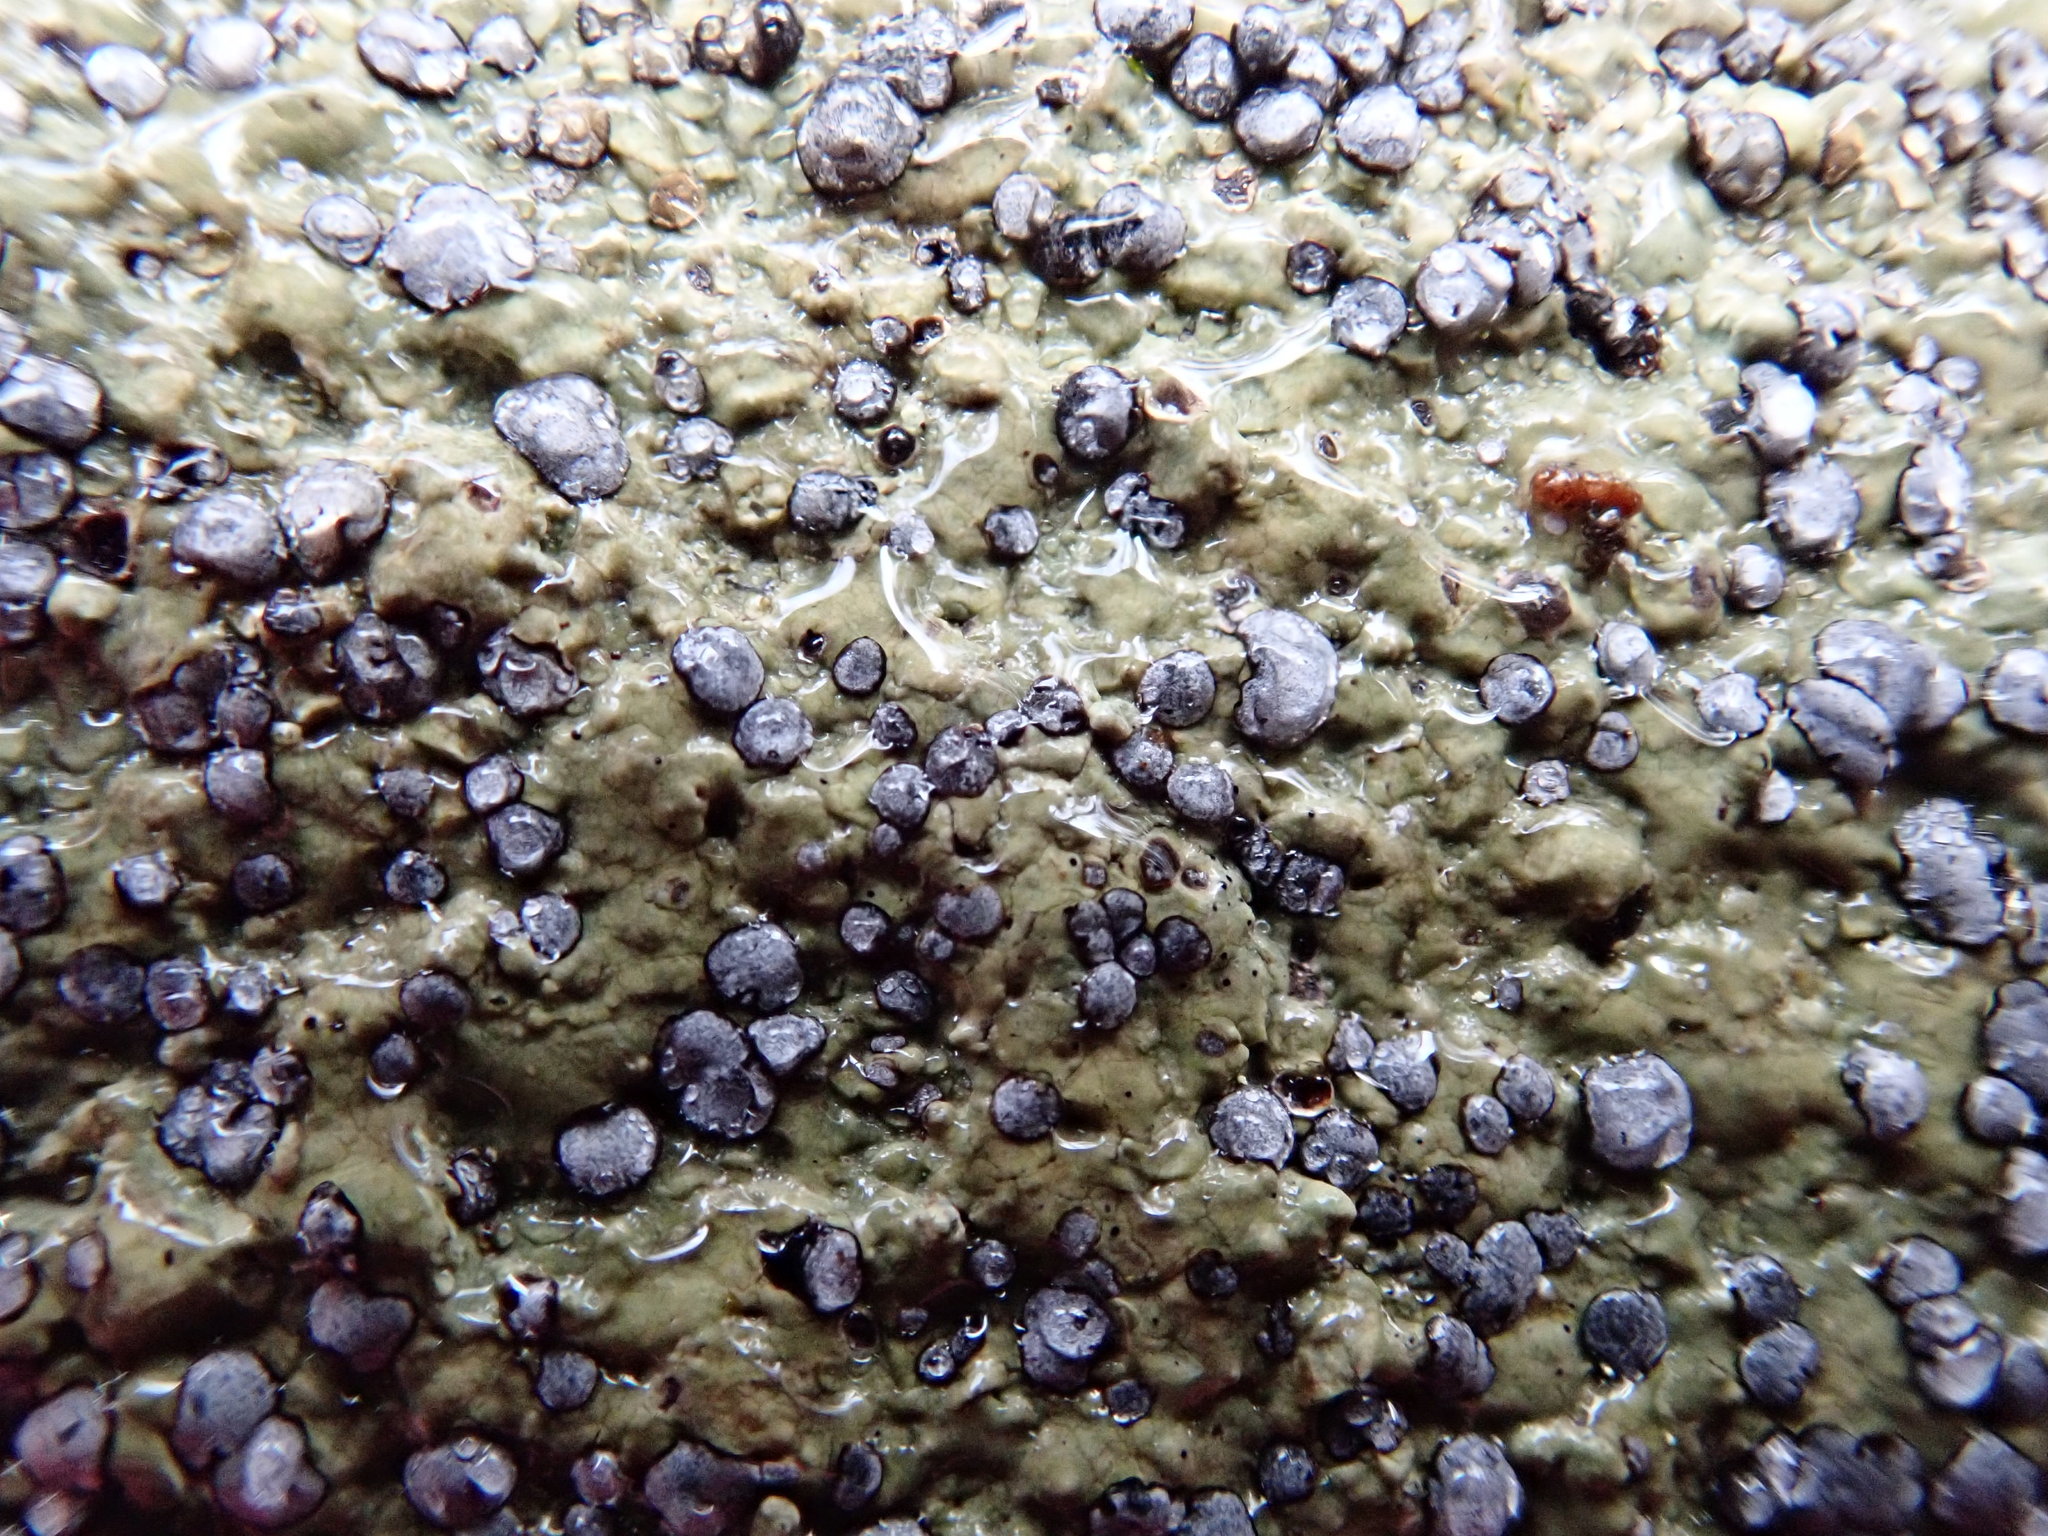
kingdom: Fungi
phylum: Ascomycota
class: Lecanoromycetes
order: Lecideales
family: Lecideaceae
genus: Porpidia
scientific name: Porpidia albocaerulescens
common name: Smokey-eyed boulder lichen
